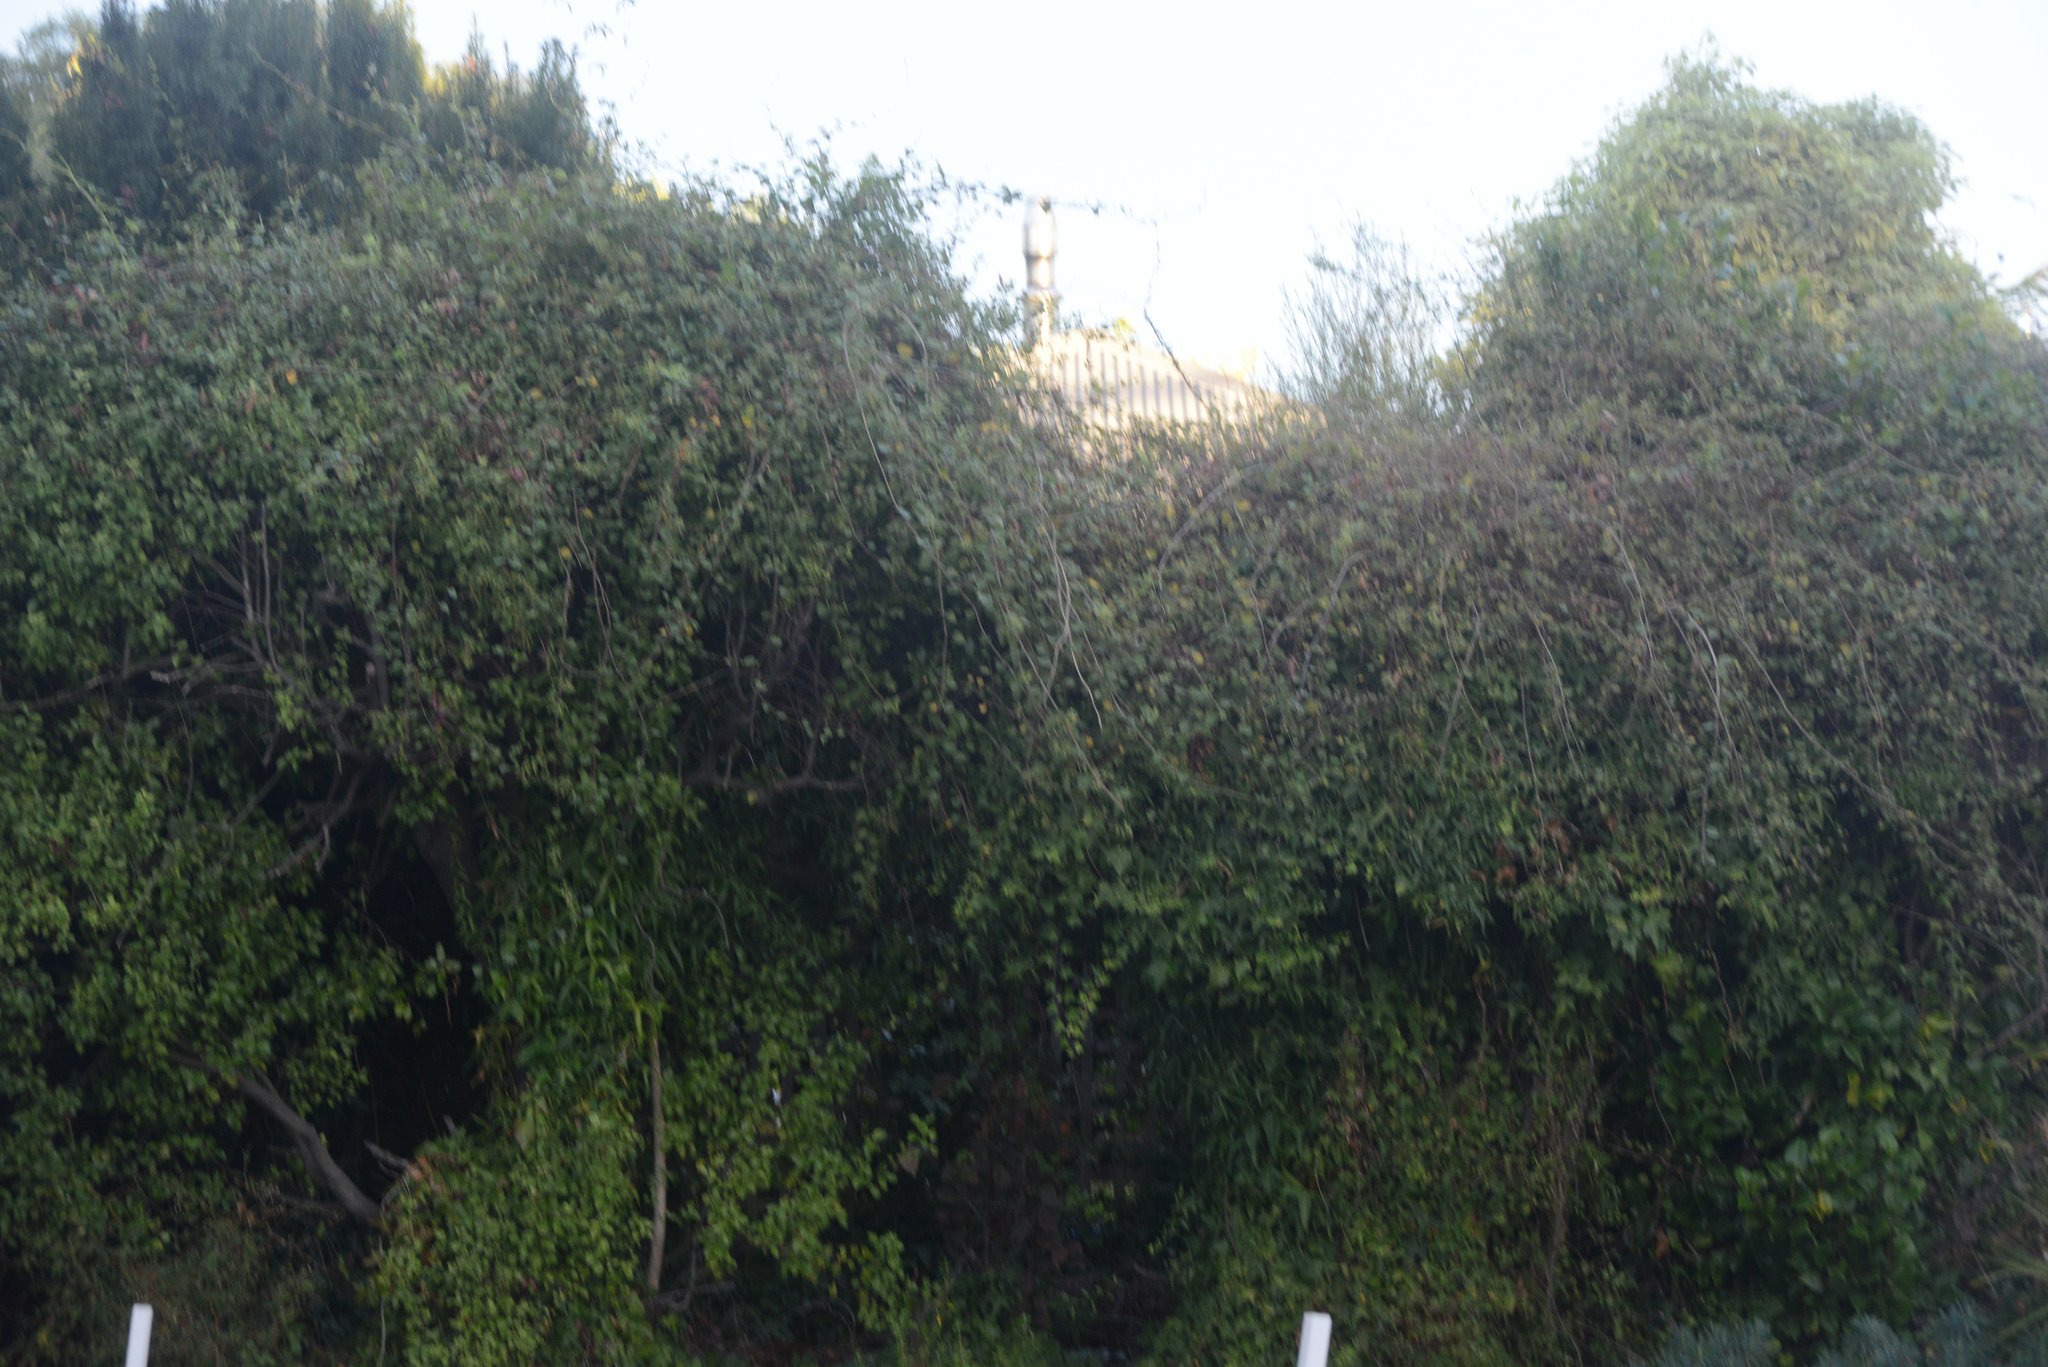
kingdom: Plantae
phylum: Tracheophyta
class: Magnoliopsida
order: Caryophyllales
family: Polygonaceae
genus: Muehlenbeckia
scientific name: Muehlenbeckia australis
